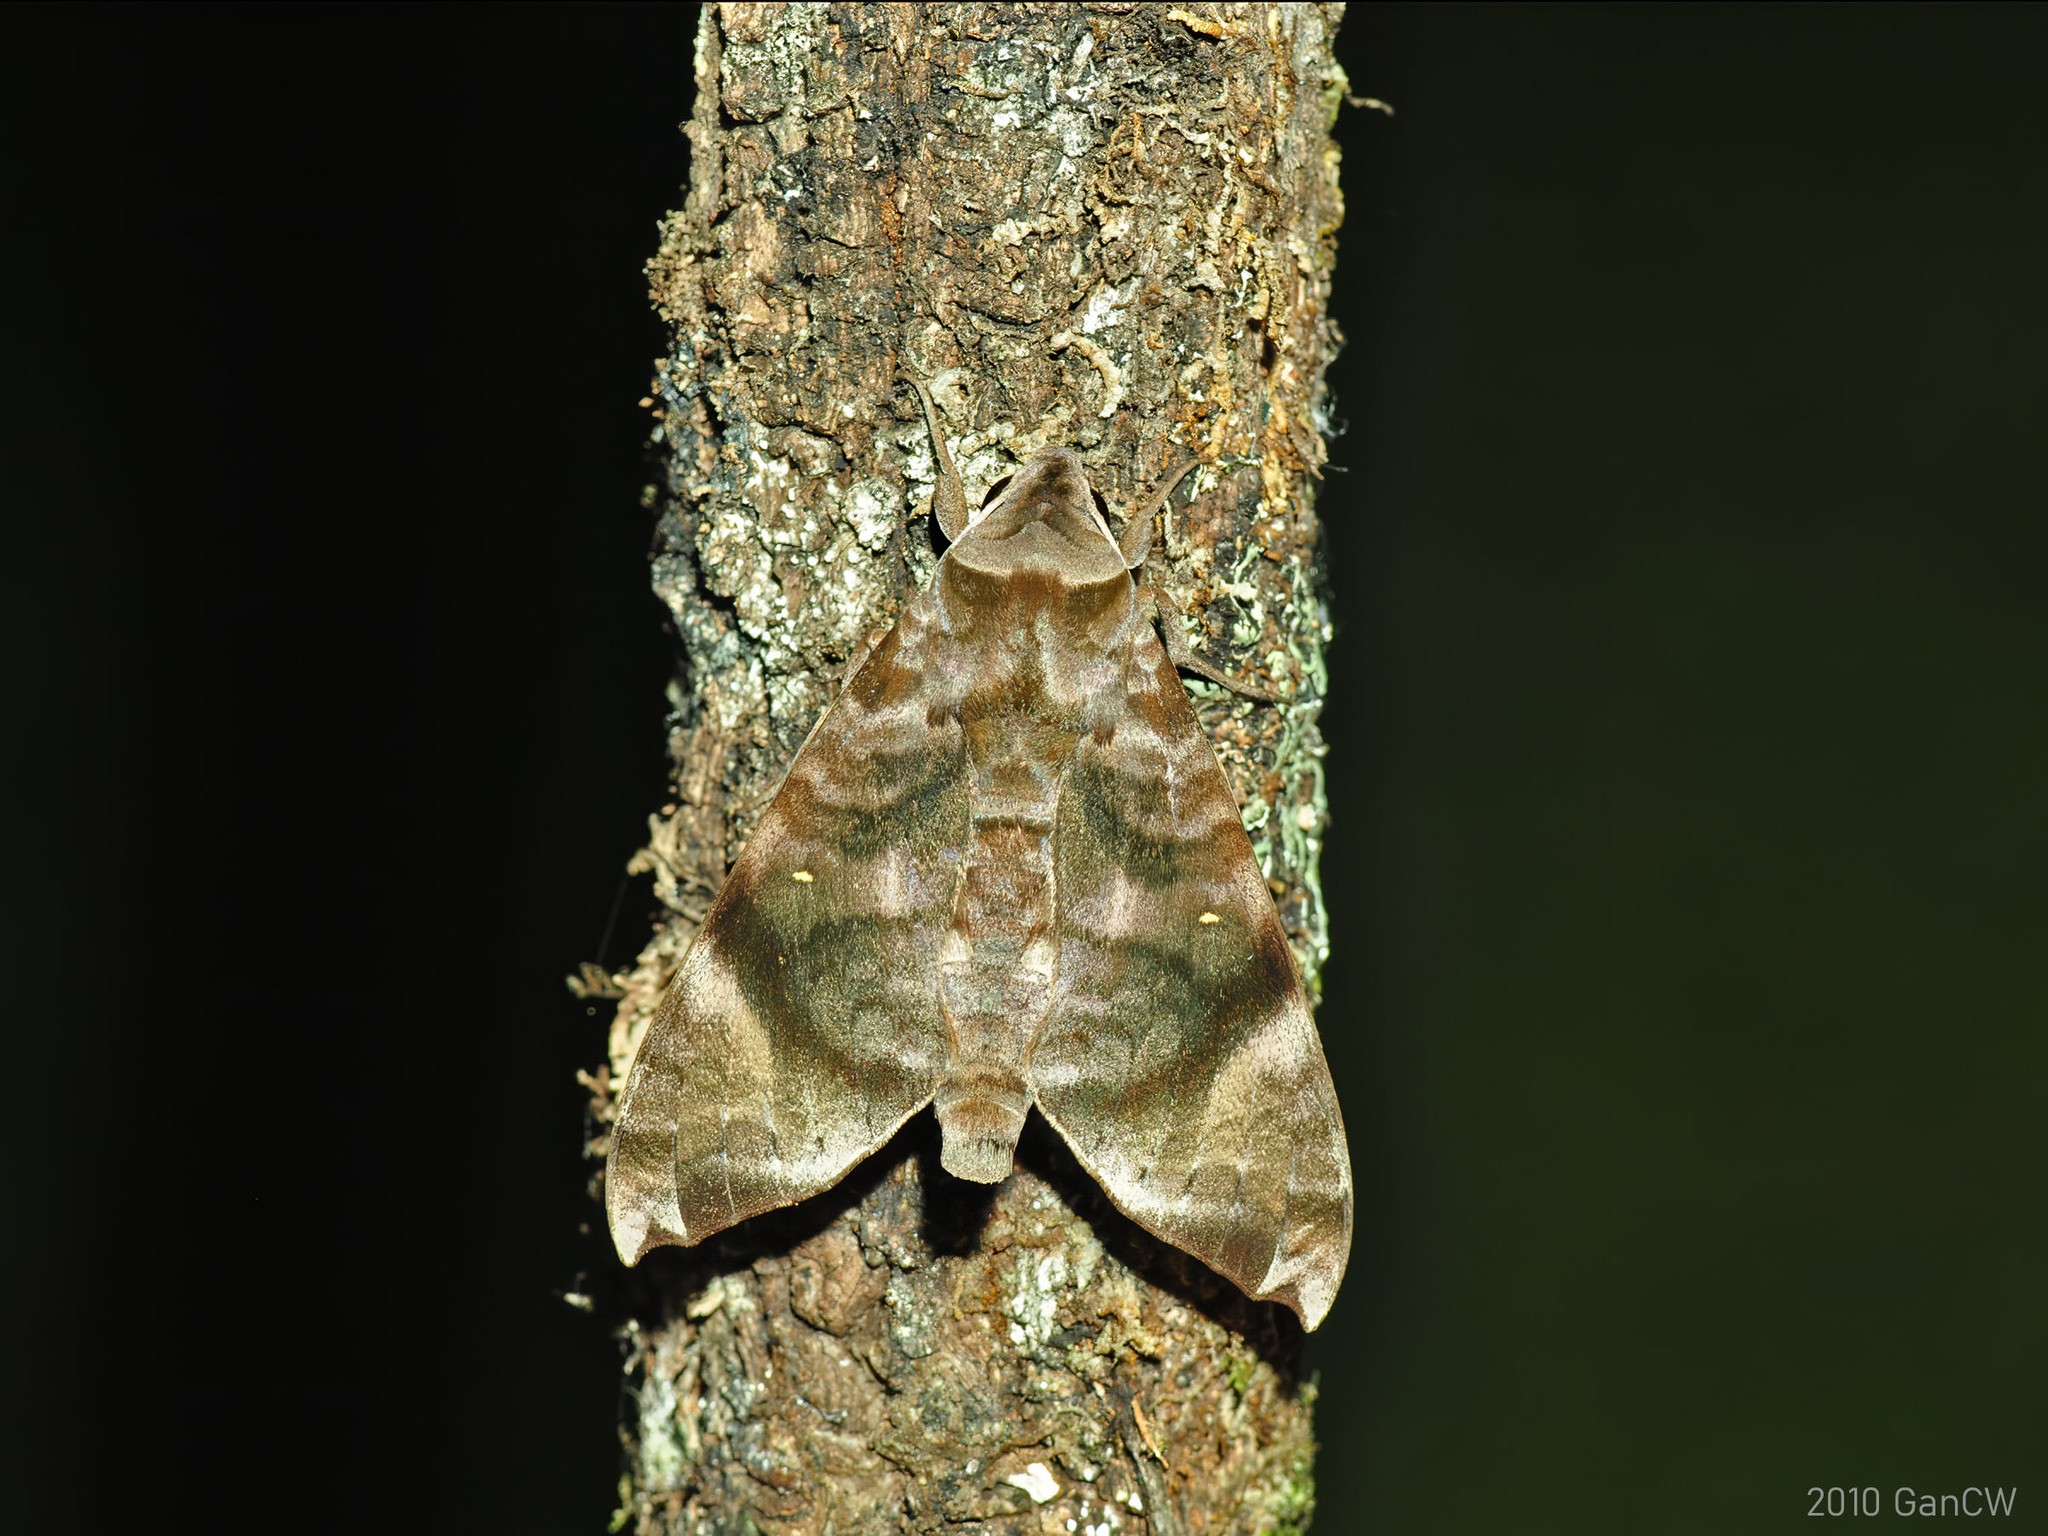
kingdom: Animalia
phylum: Arthropoda
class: Insecta
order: Lepidoptera
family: Sphingidae
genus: Acosmeryx
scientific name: Acosmeryx shervillii
